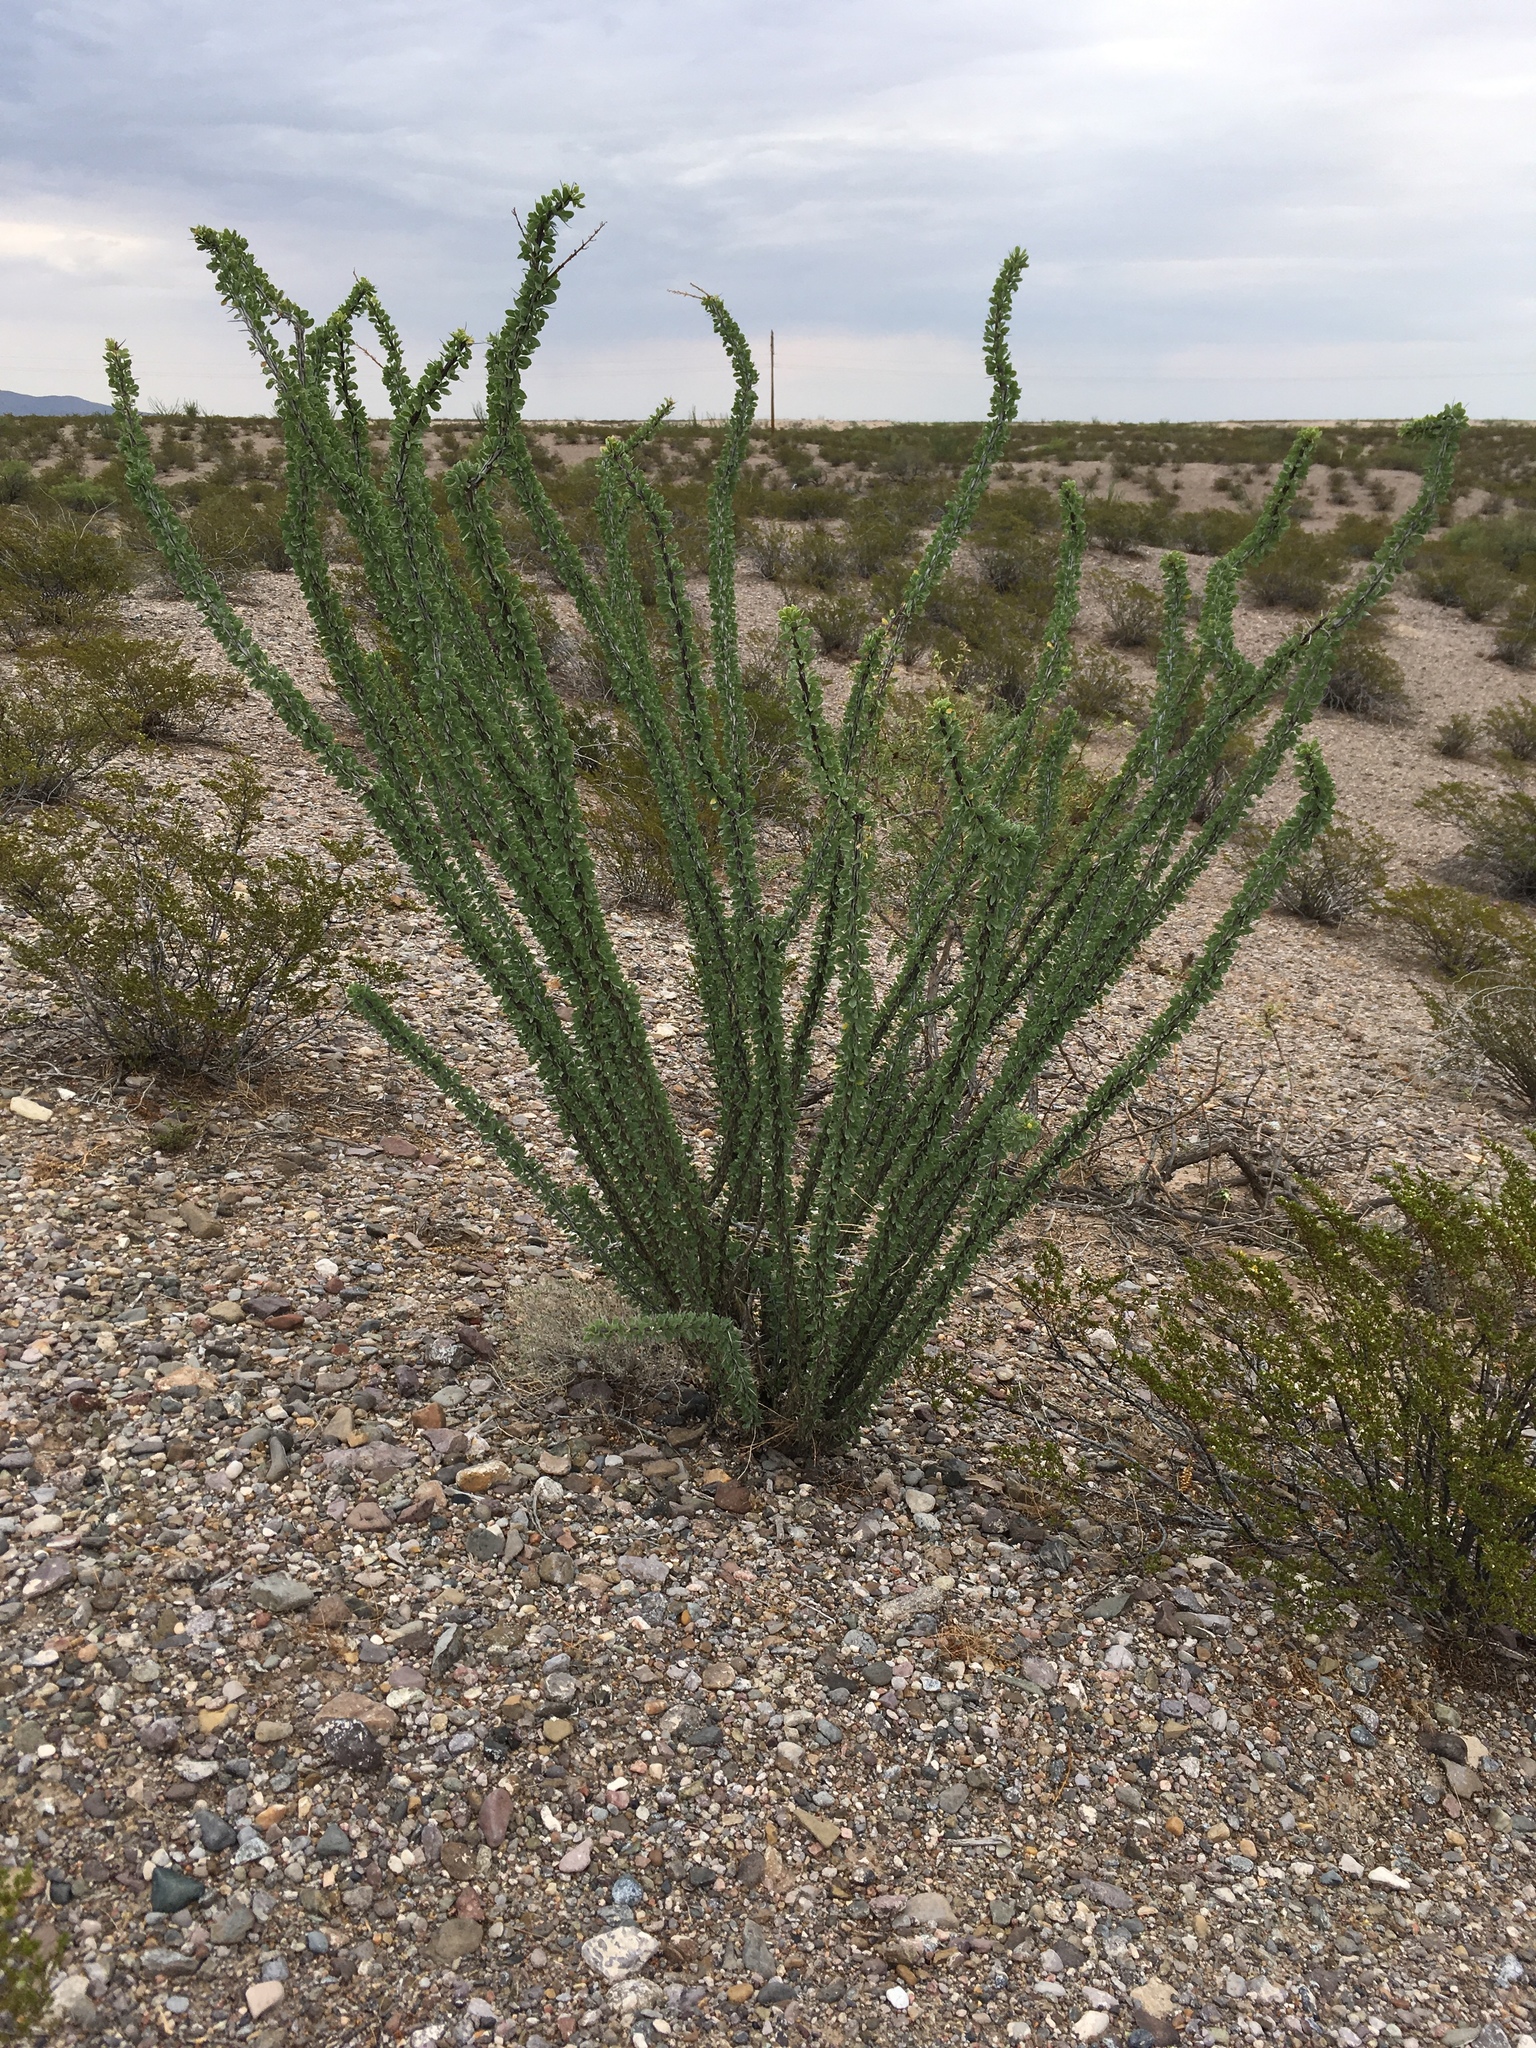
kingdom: Plantae
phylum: Tracheophyta
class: Magnoliopsida
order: Ericales
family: Fouquieriaceae
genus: Fouquieria
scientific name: Fouquieria splendens
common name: Vine-cactus
